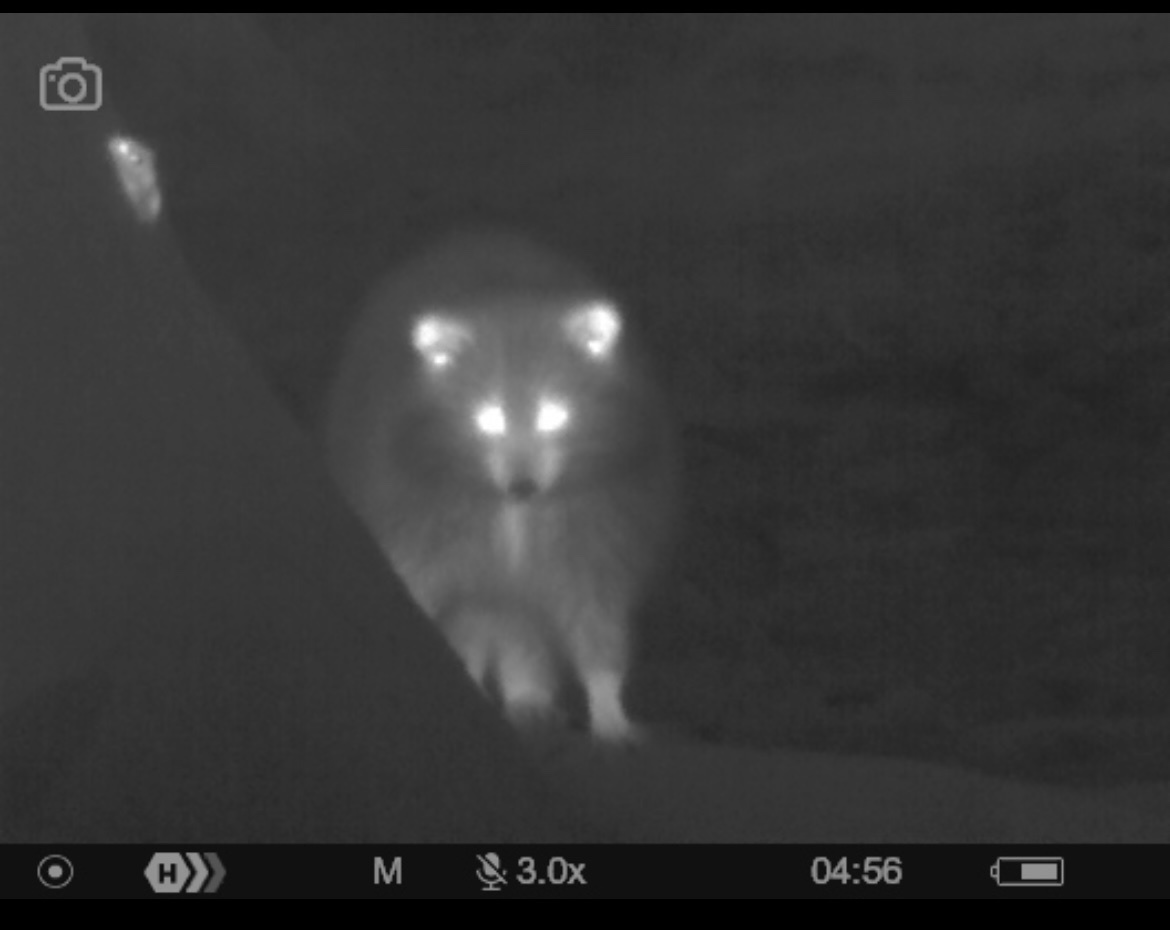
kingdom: Animalia
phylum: Chordata
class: Mammalia
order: Carnivora
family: Procyonidae
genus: Procyon
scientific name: Procyon lotor
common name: Raccoon
